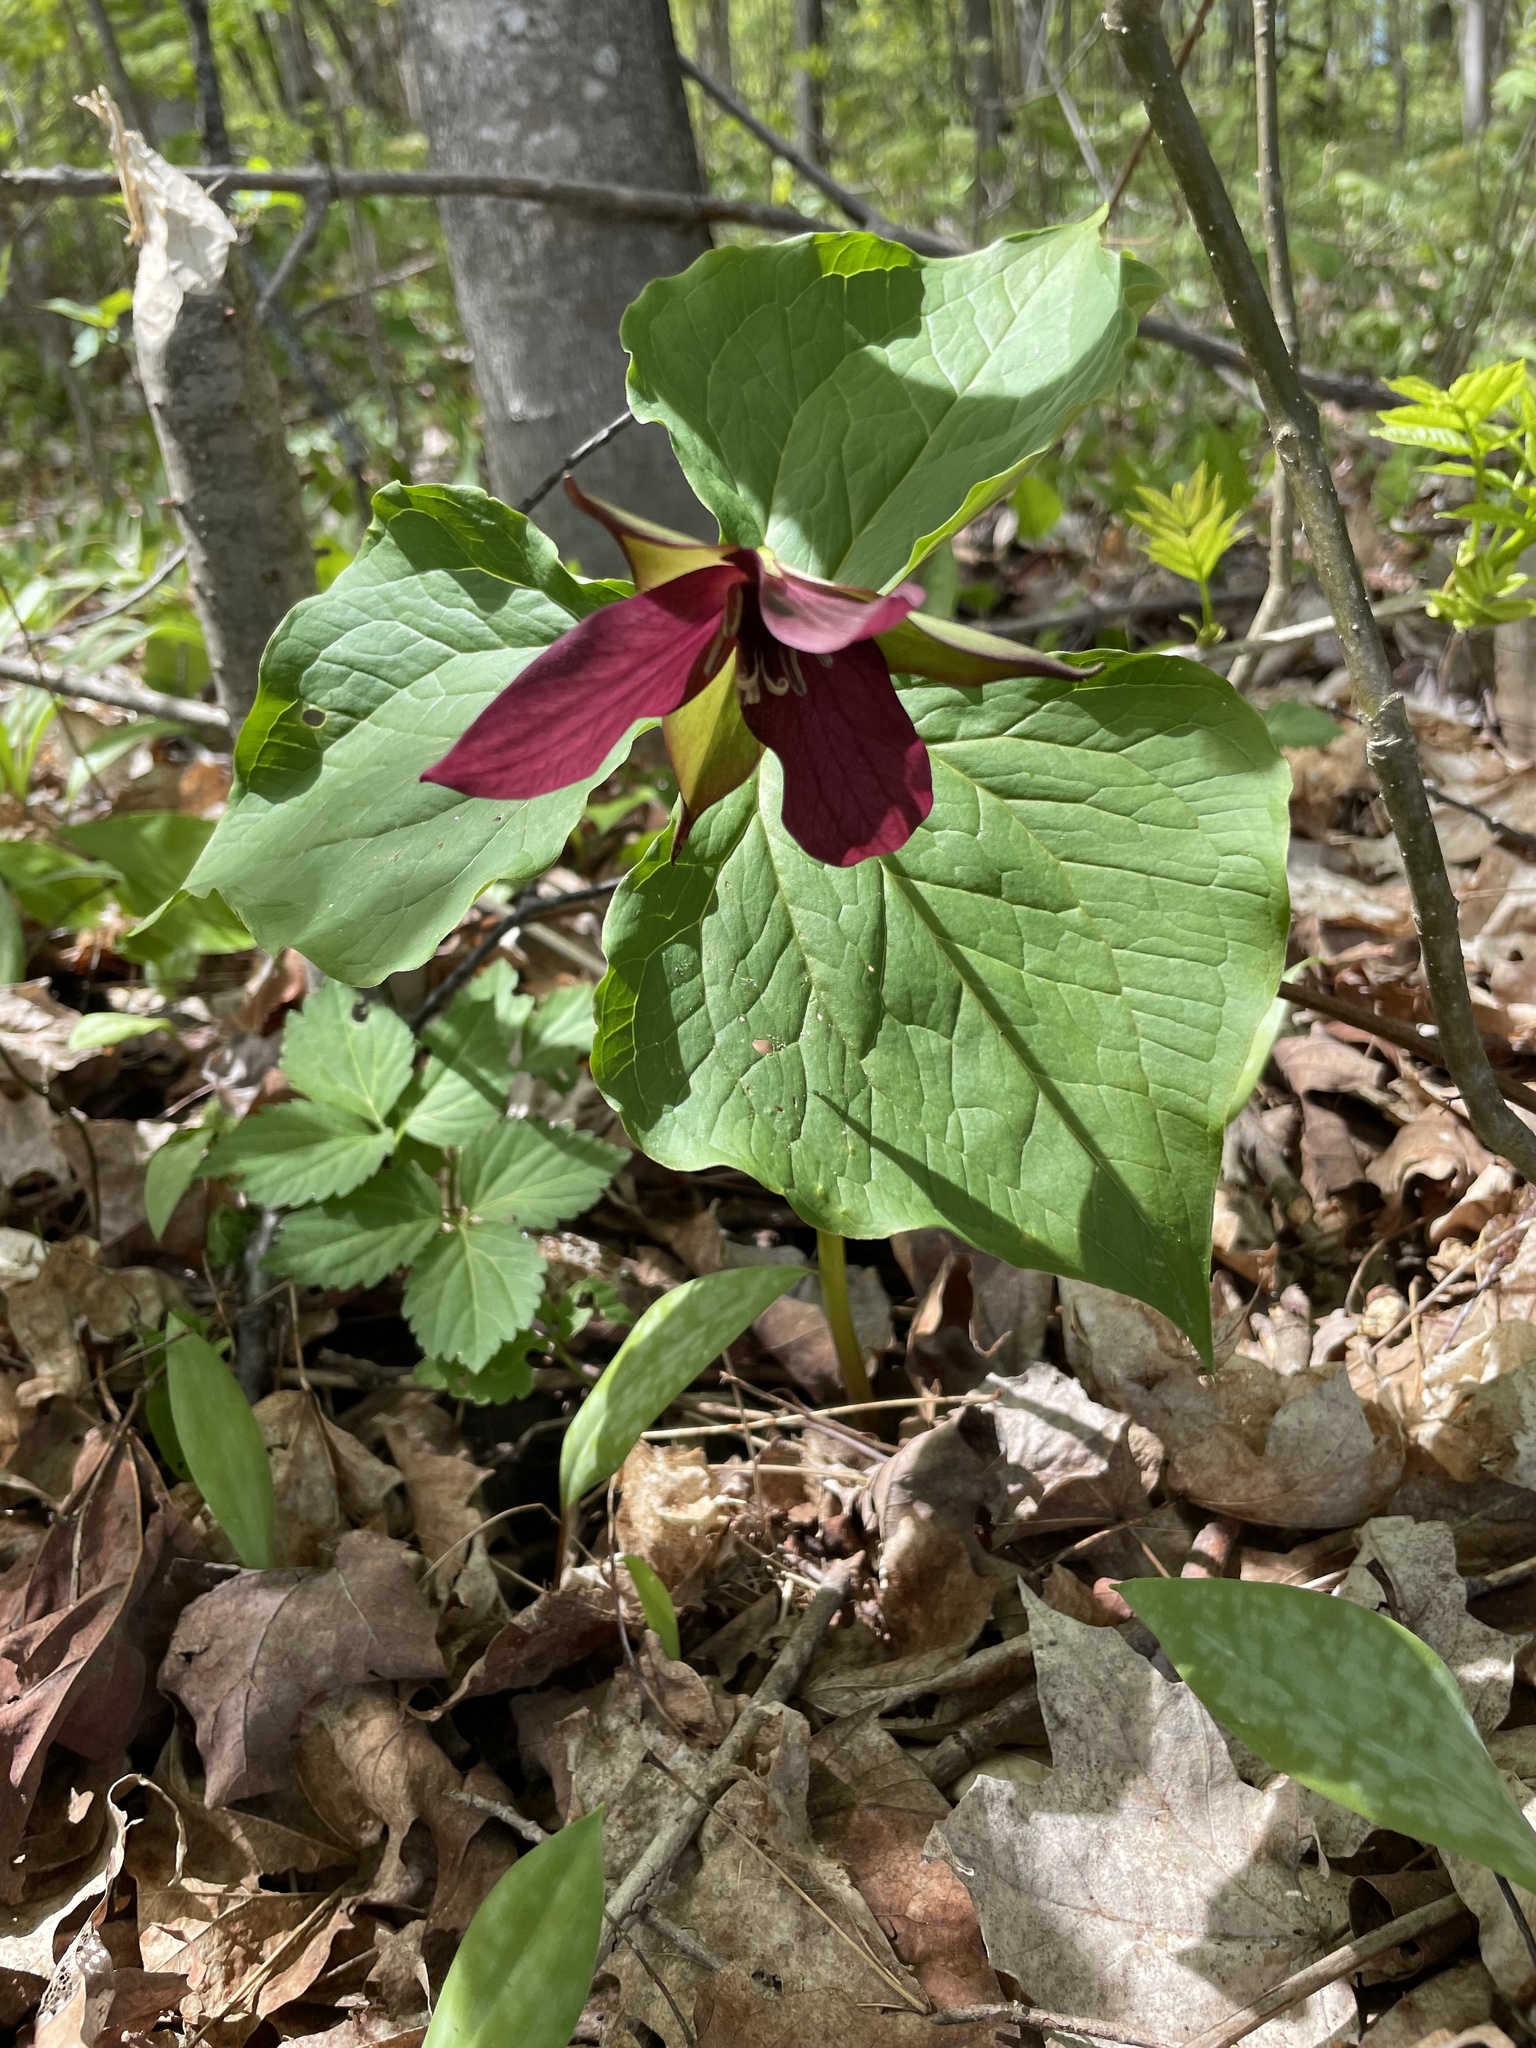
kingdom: Plantae
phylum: Tracheophyta
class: Liliopsida
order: Liliales
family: Melanthiaceae
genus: Trillium
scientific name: Trillium erectum
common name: Purple trillium
